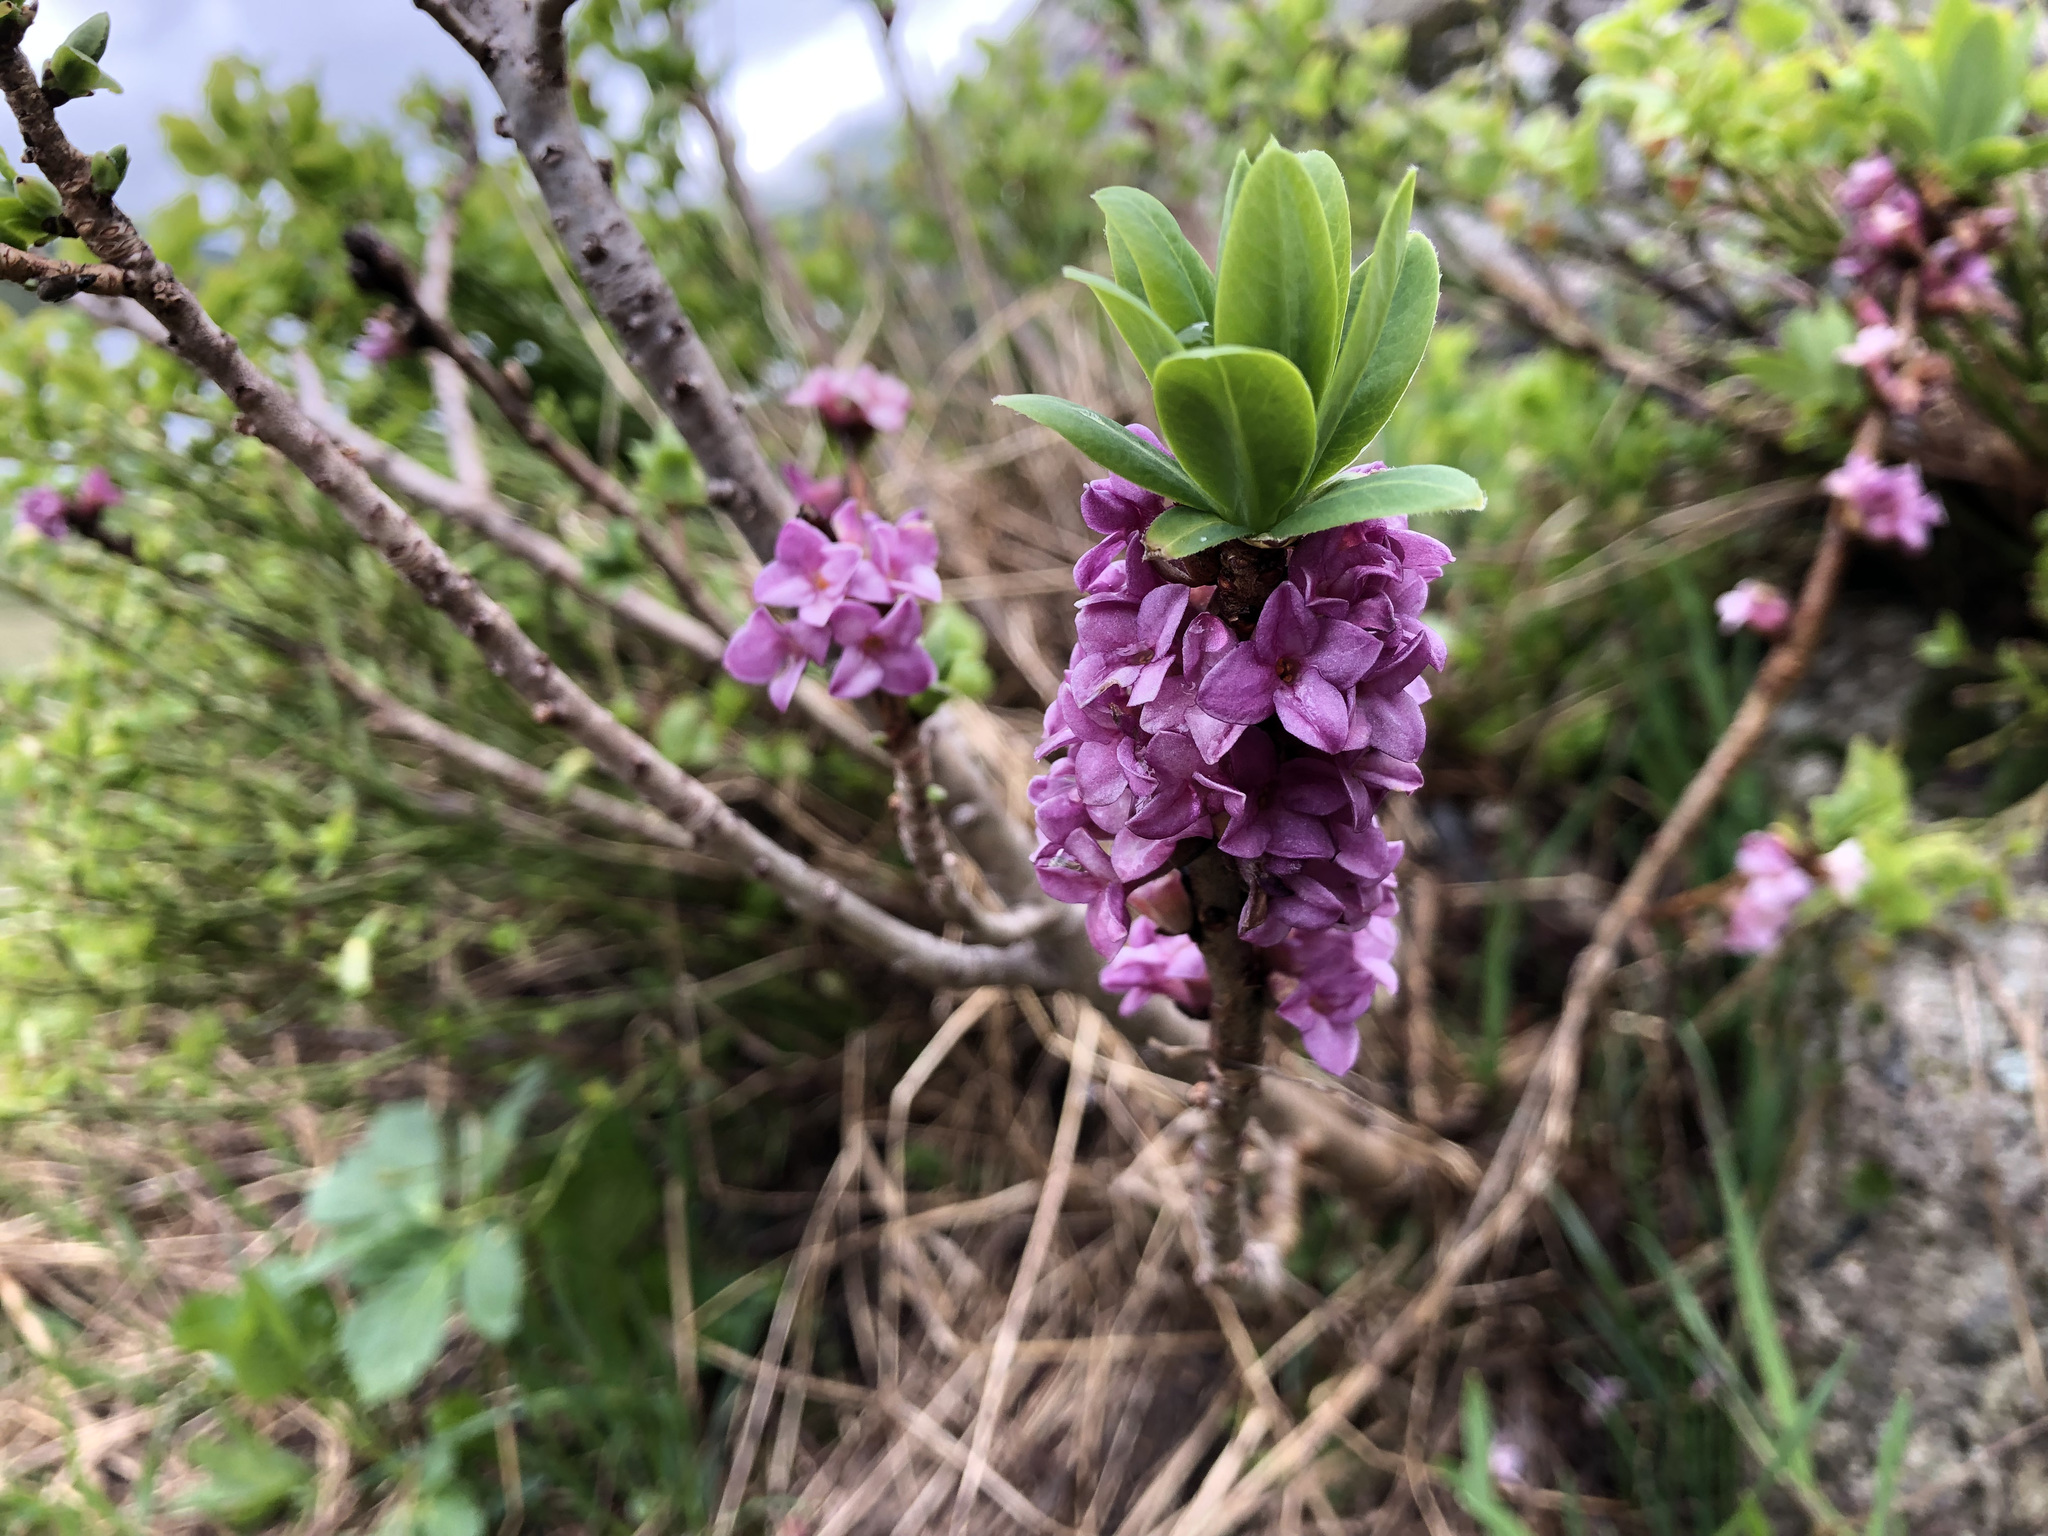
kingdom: Plantae
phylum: Tracheophyta
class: Magnoliopsida
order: Malvales
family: Thymelaeaceae
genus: Daphne
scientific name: Daphne mezereum
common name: Mezereon
